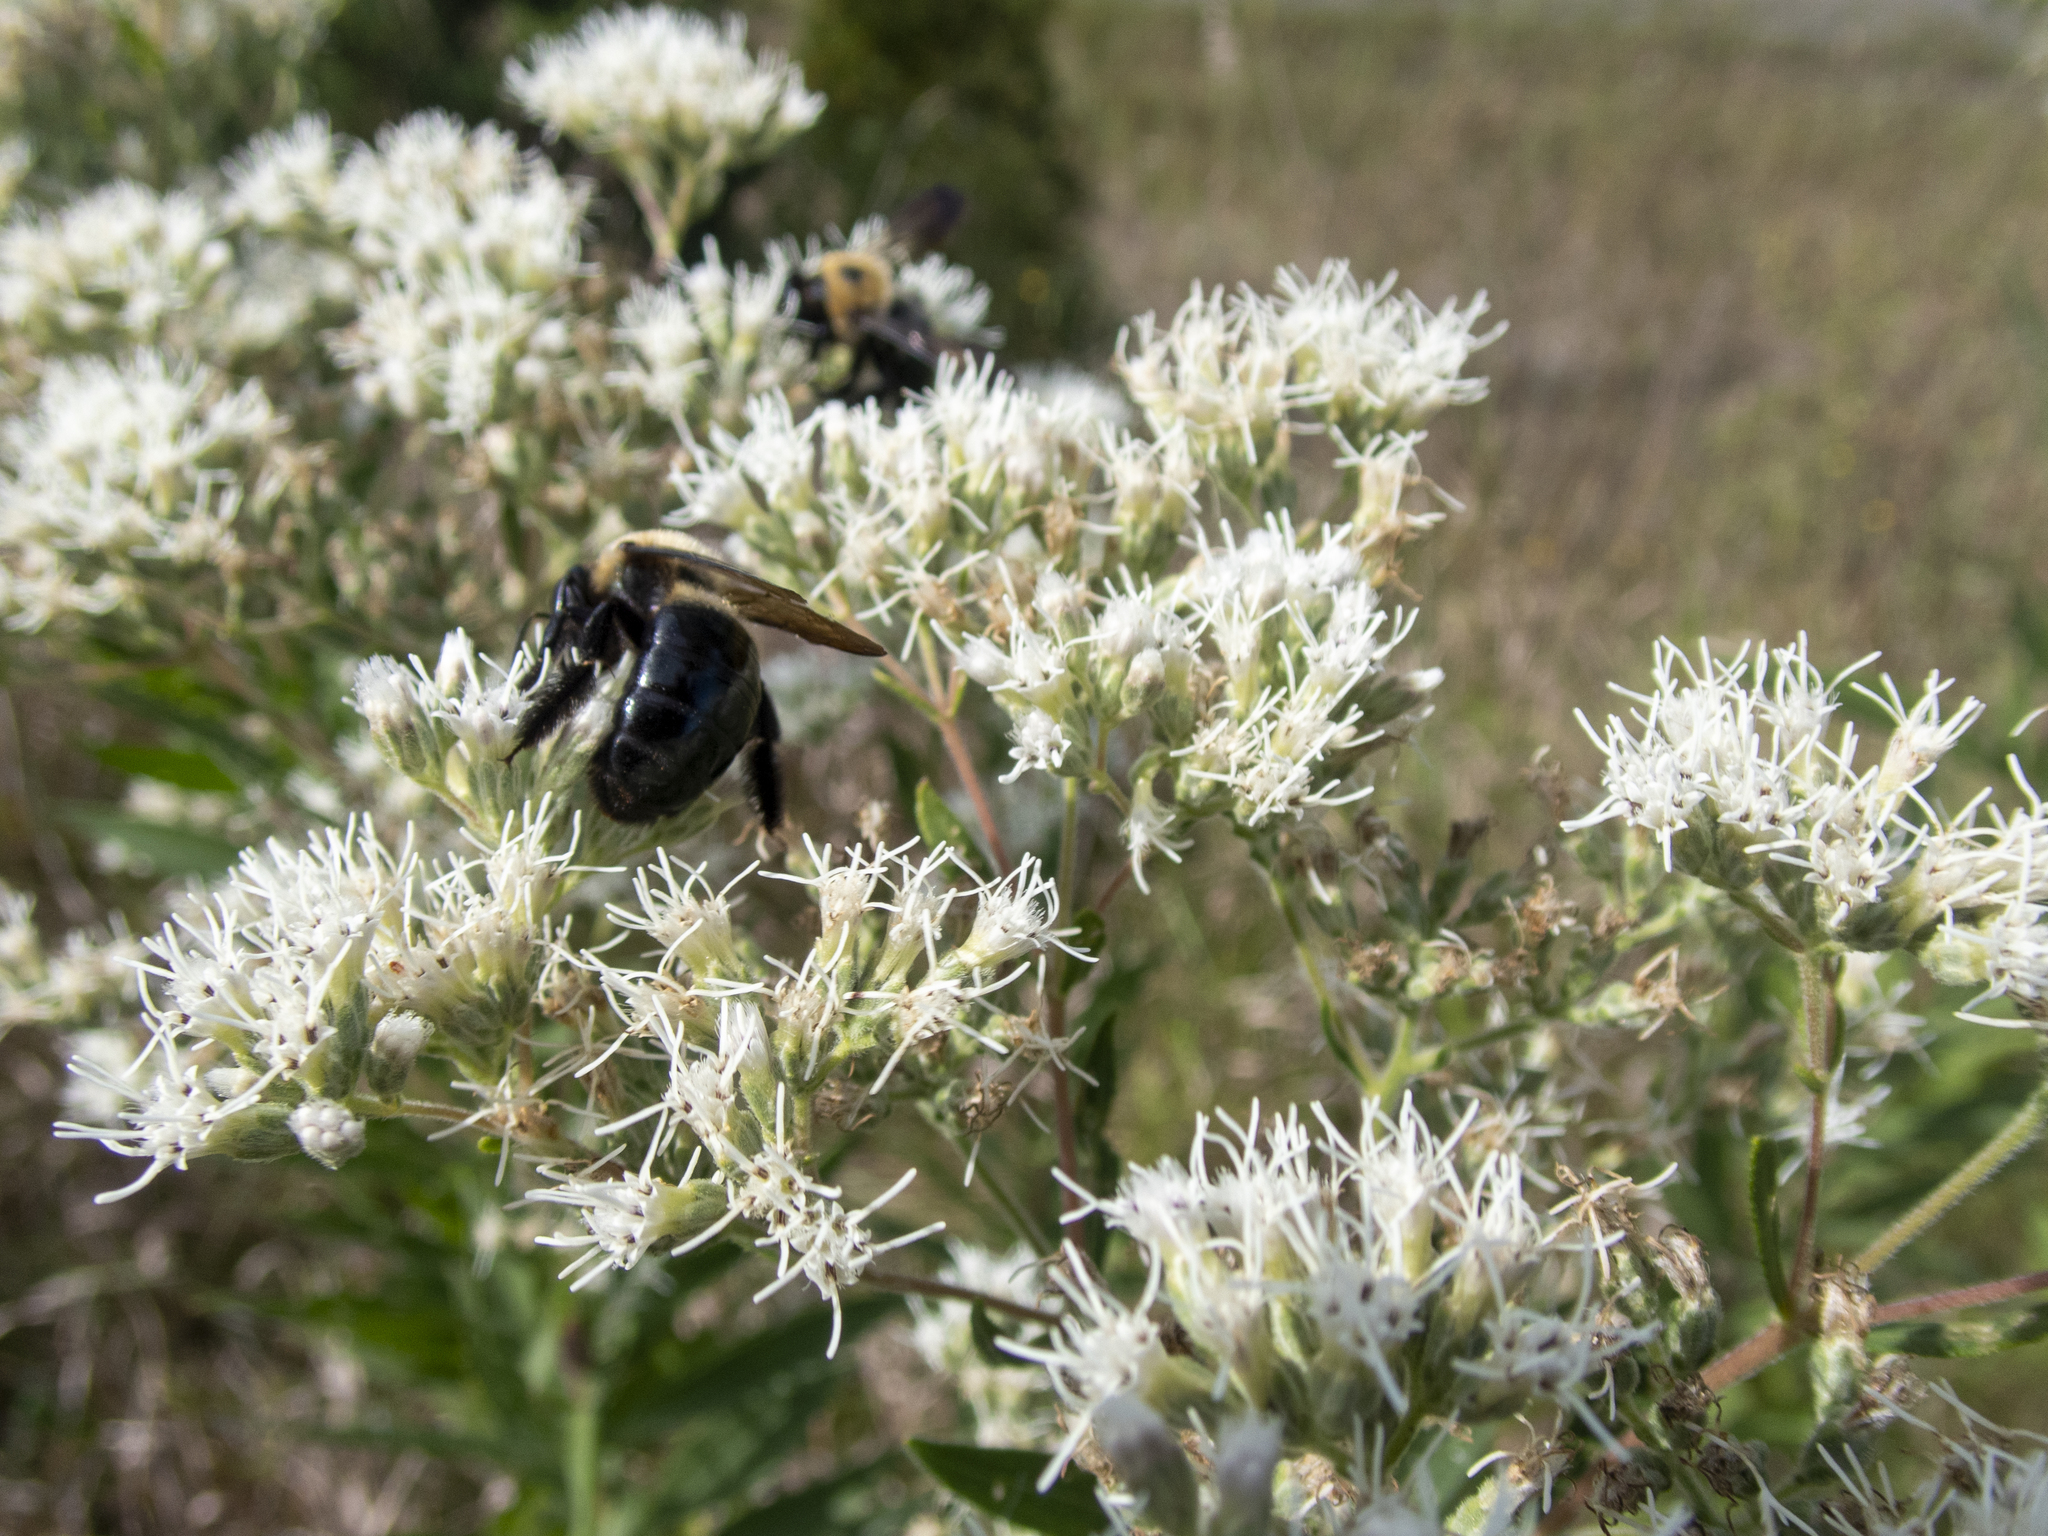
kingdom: Plantae
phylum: Tracheophyta
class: Magnoliopsida
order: Asterales
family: Asteraceae
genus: Eupatorium
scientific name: Eupatorium altissimum
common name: Tall thoroughwort
